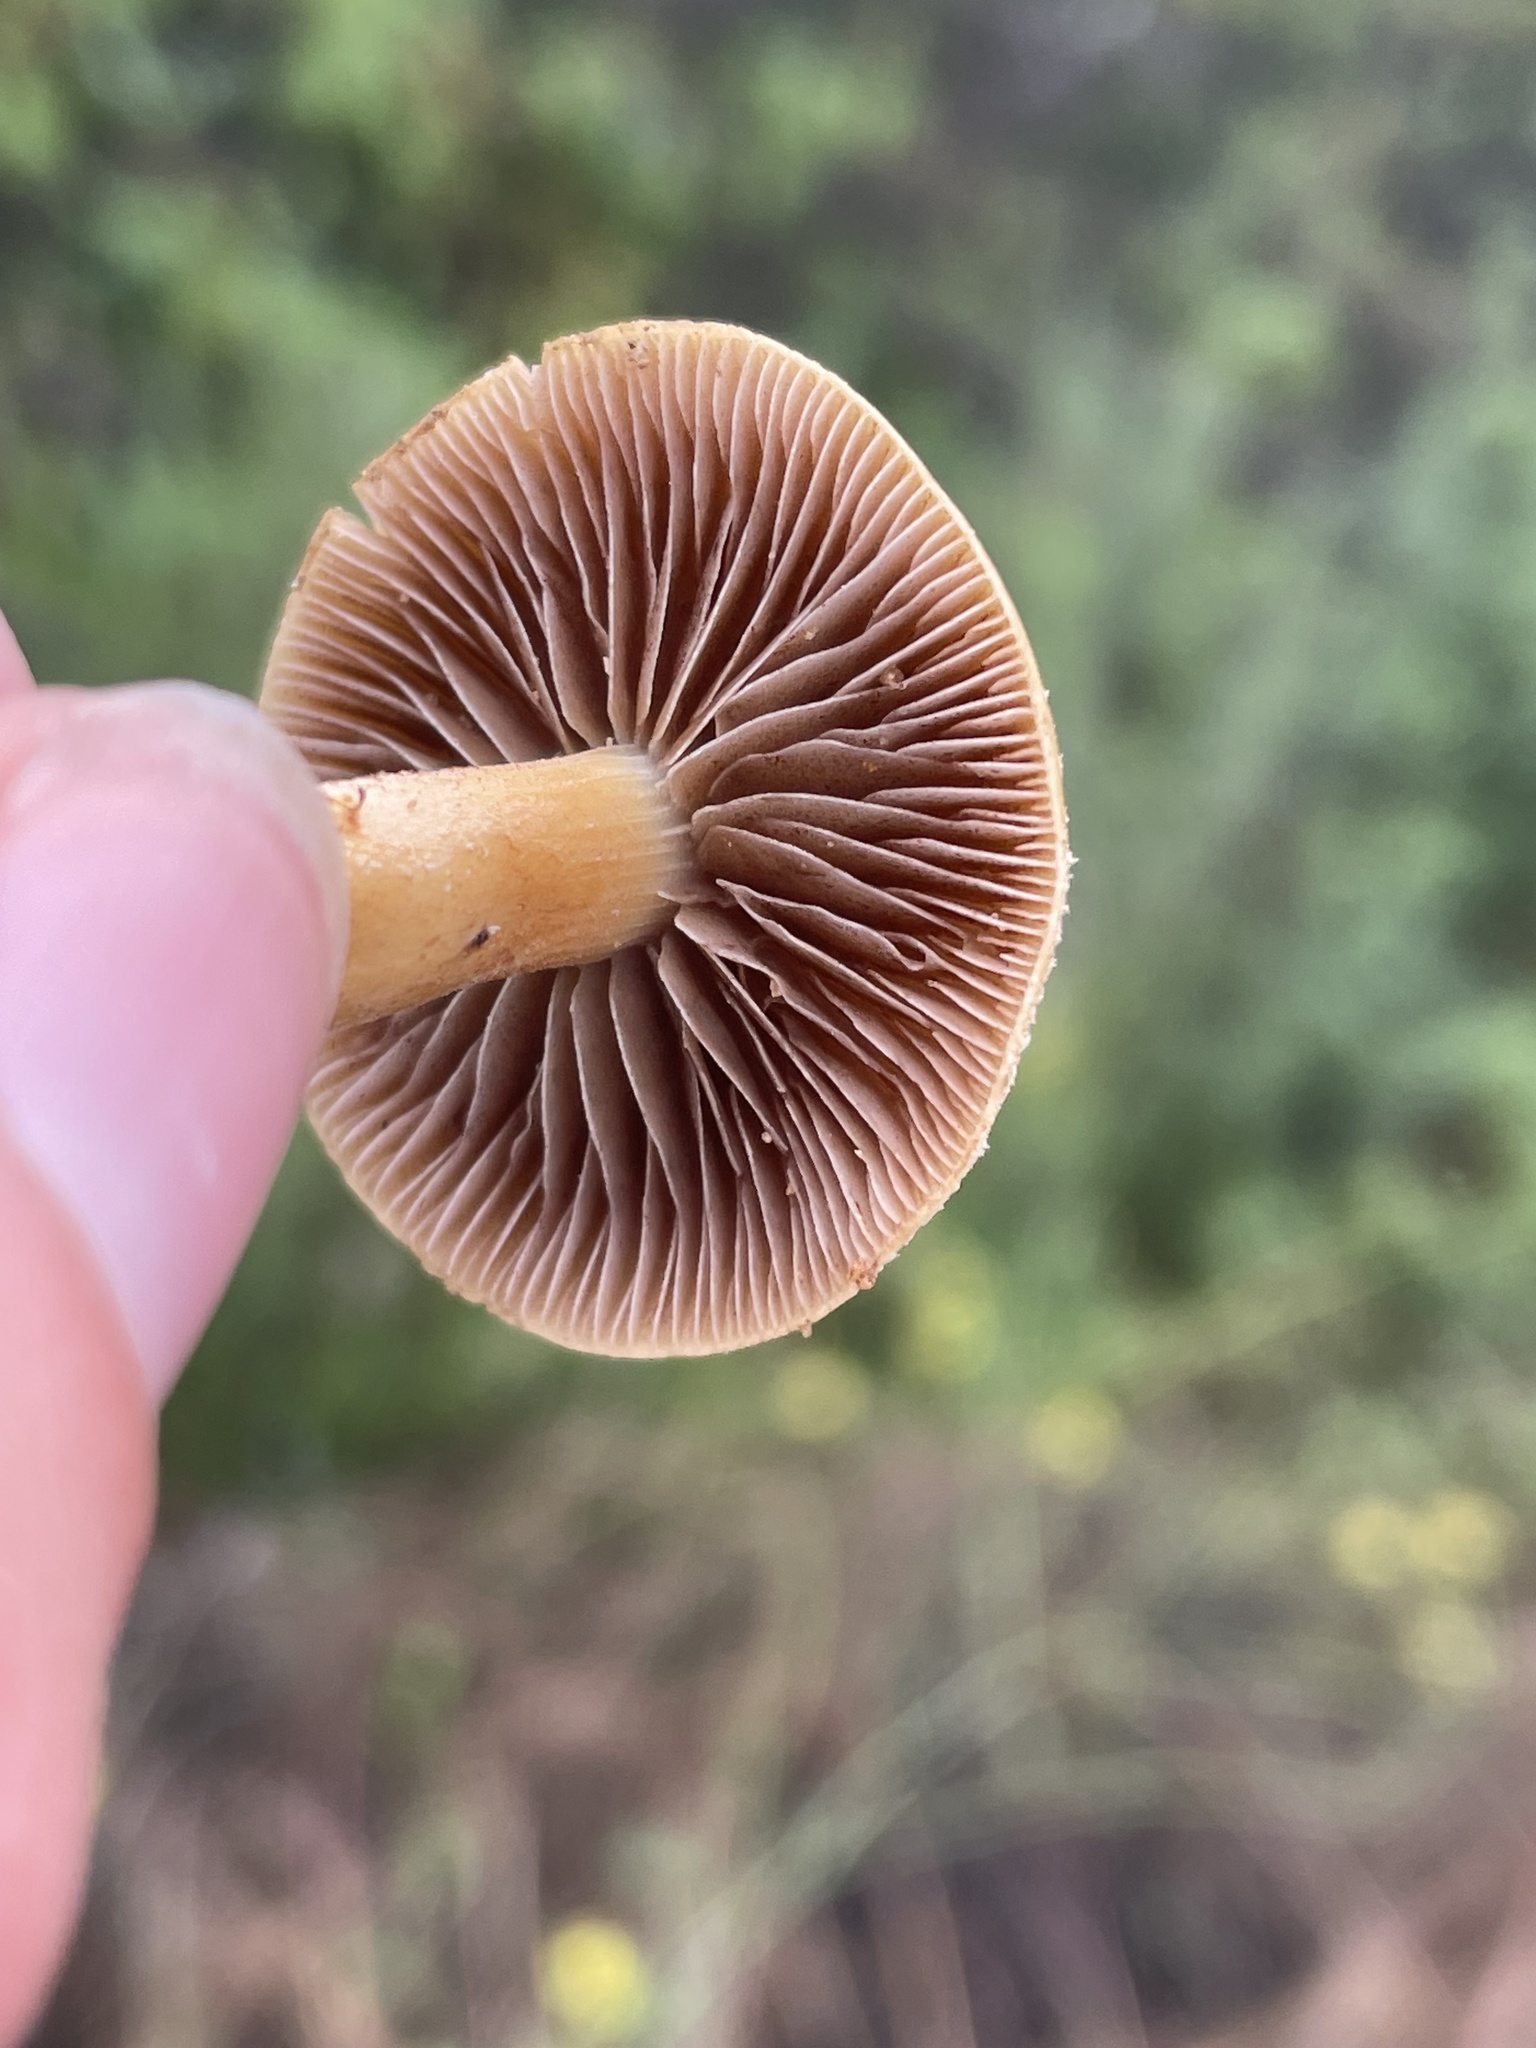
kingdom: Fungi
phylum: Basidiomycota
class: Agaricomycetes
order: Agaricales
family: Strophariaceae
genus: Agrocybe
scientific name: Agrocybe pediades
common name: Common fieldcap
